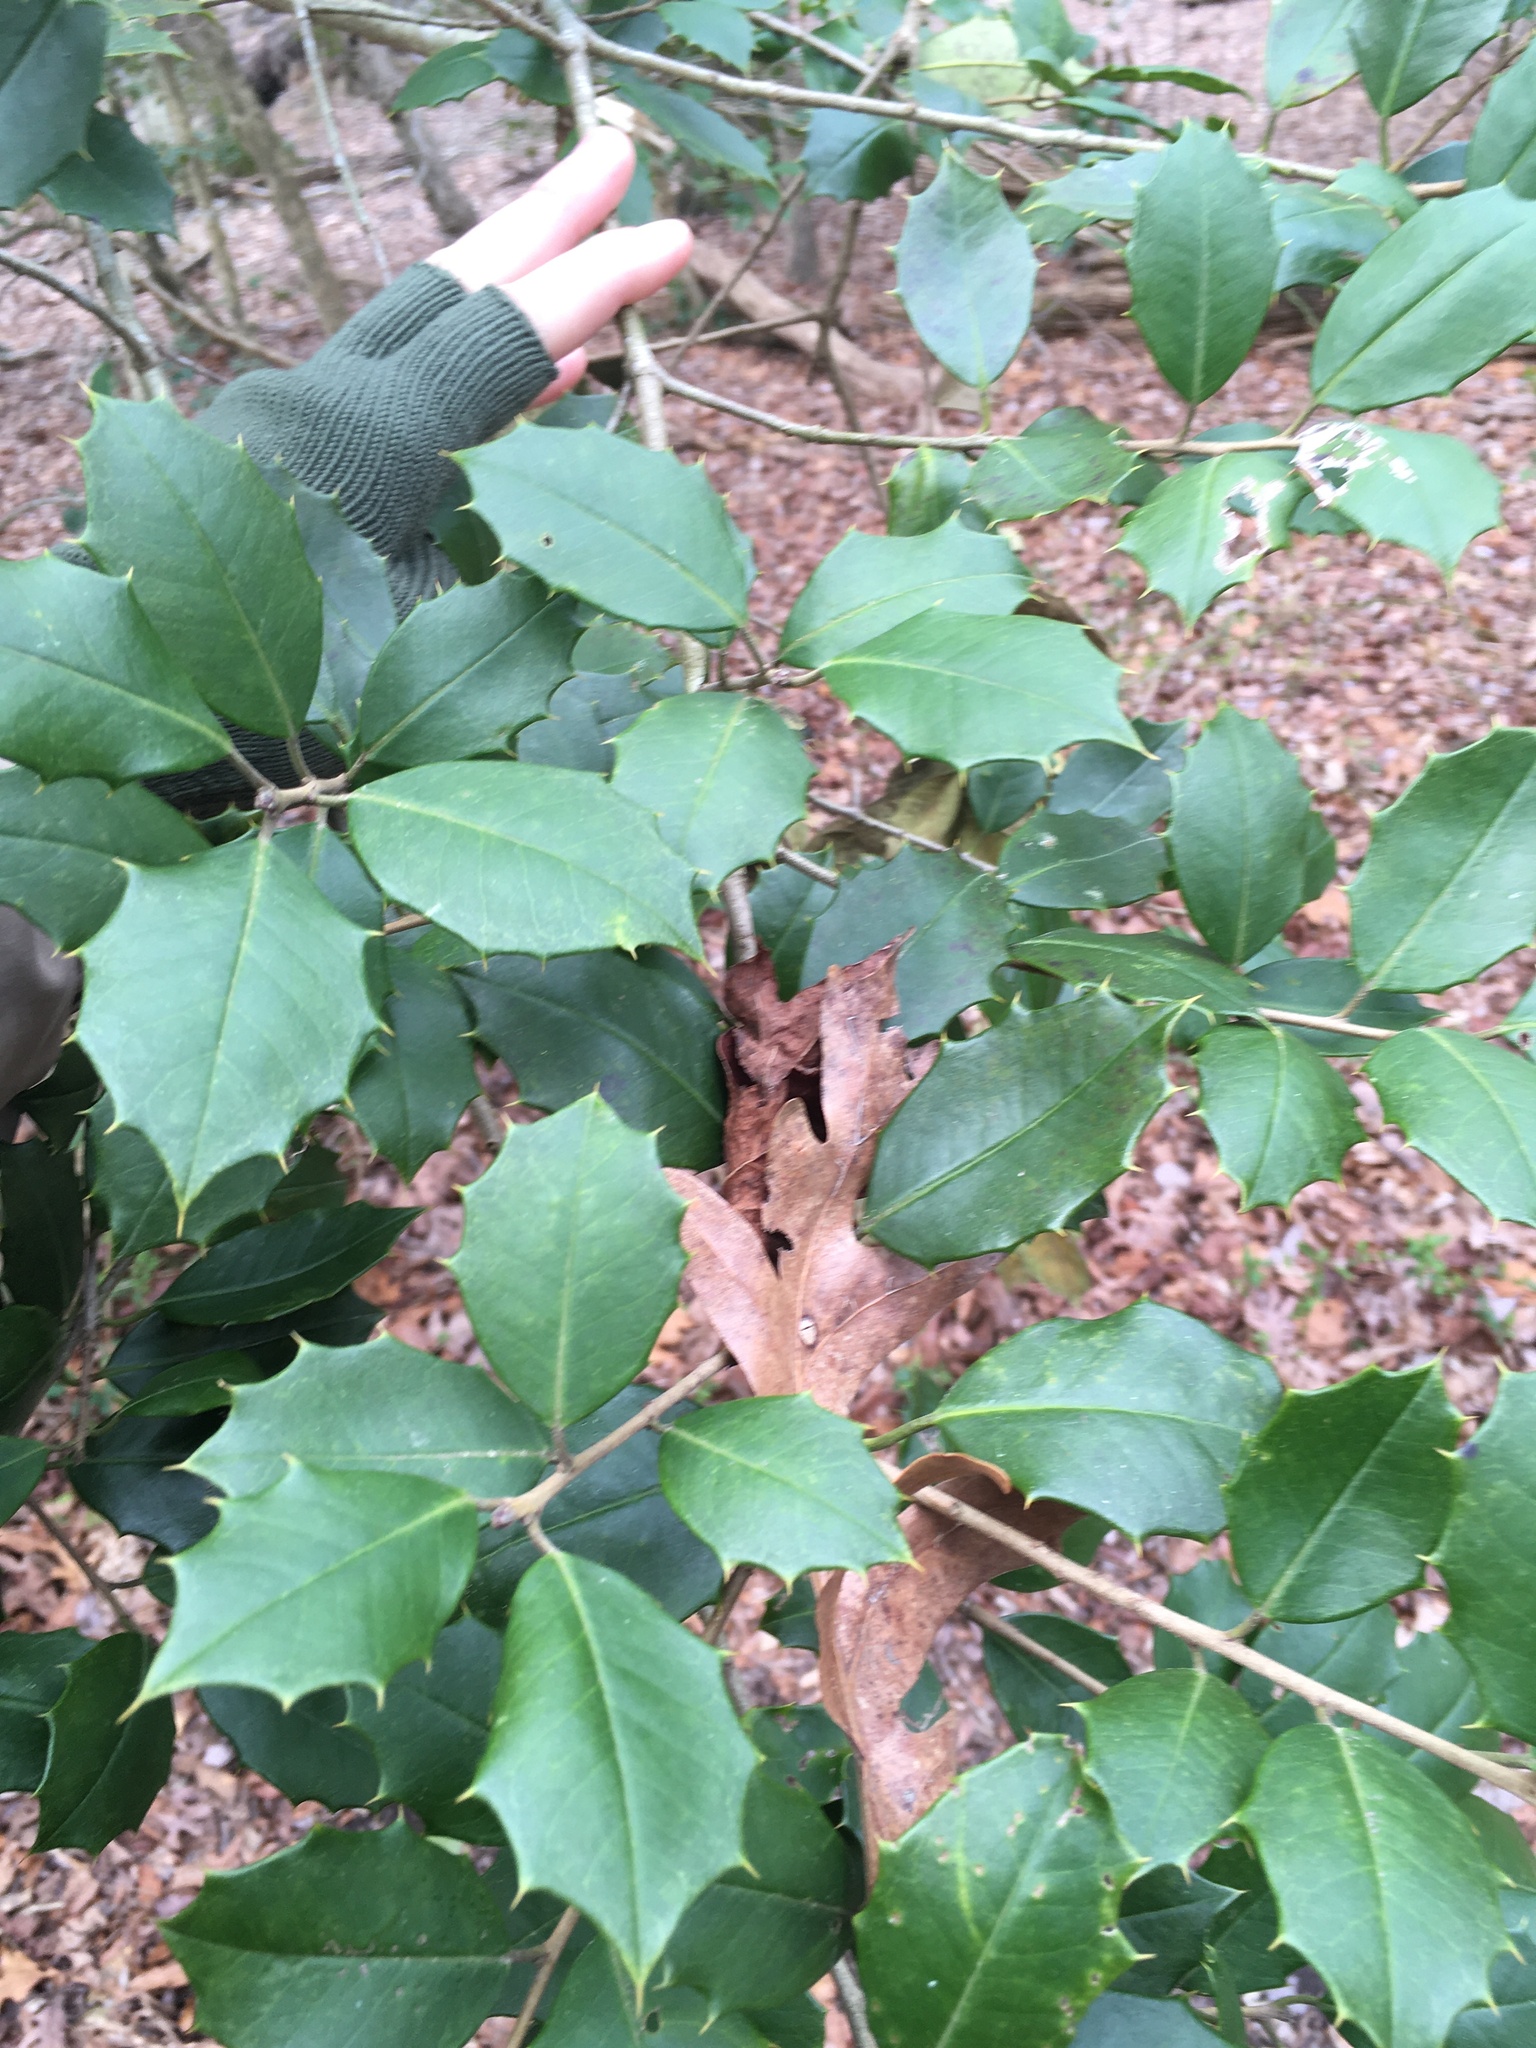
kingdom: Plantae
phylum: Tracheophyta
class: Magnoliopsida
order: Aquifoliales
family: Aquifoliaceae
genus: Ilex
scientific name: Ilex opaca
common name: American holly
